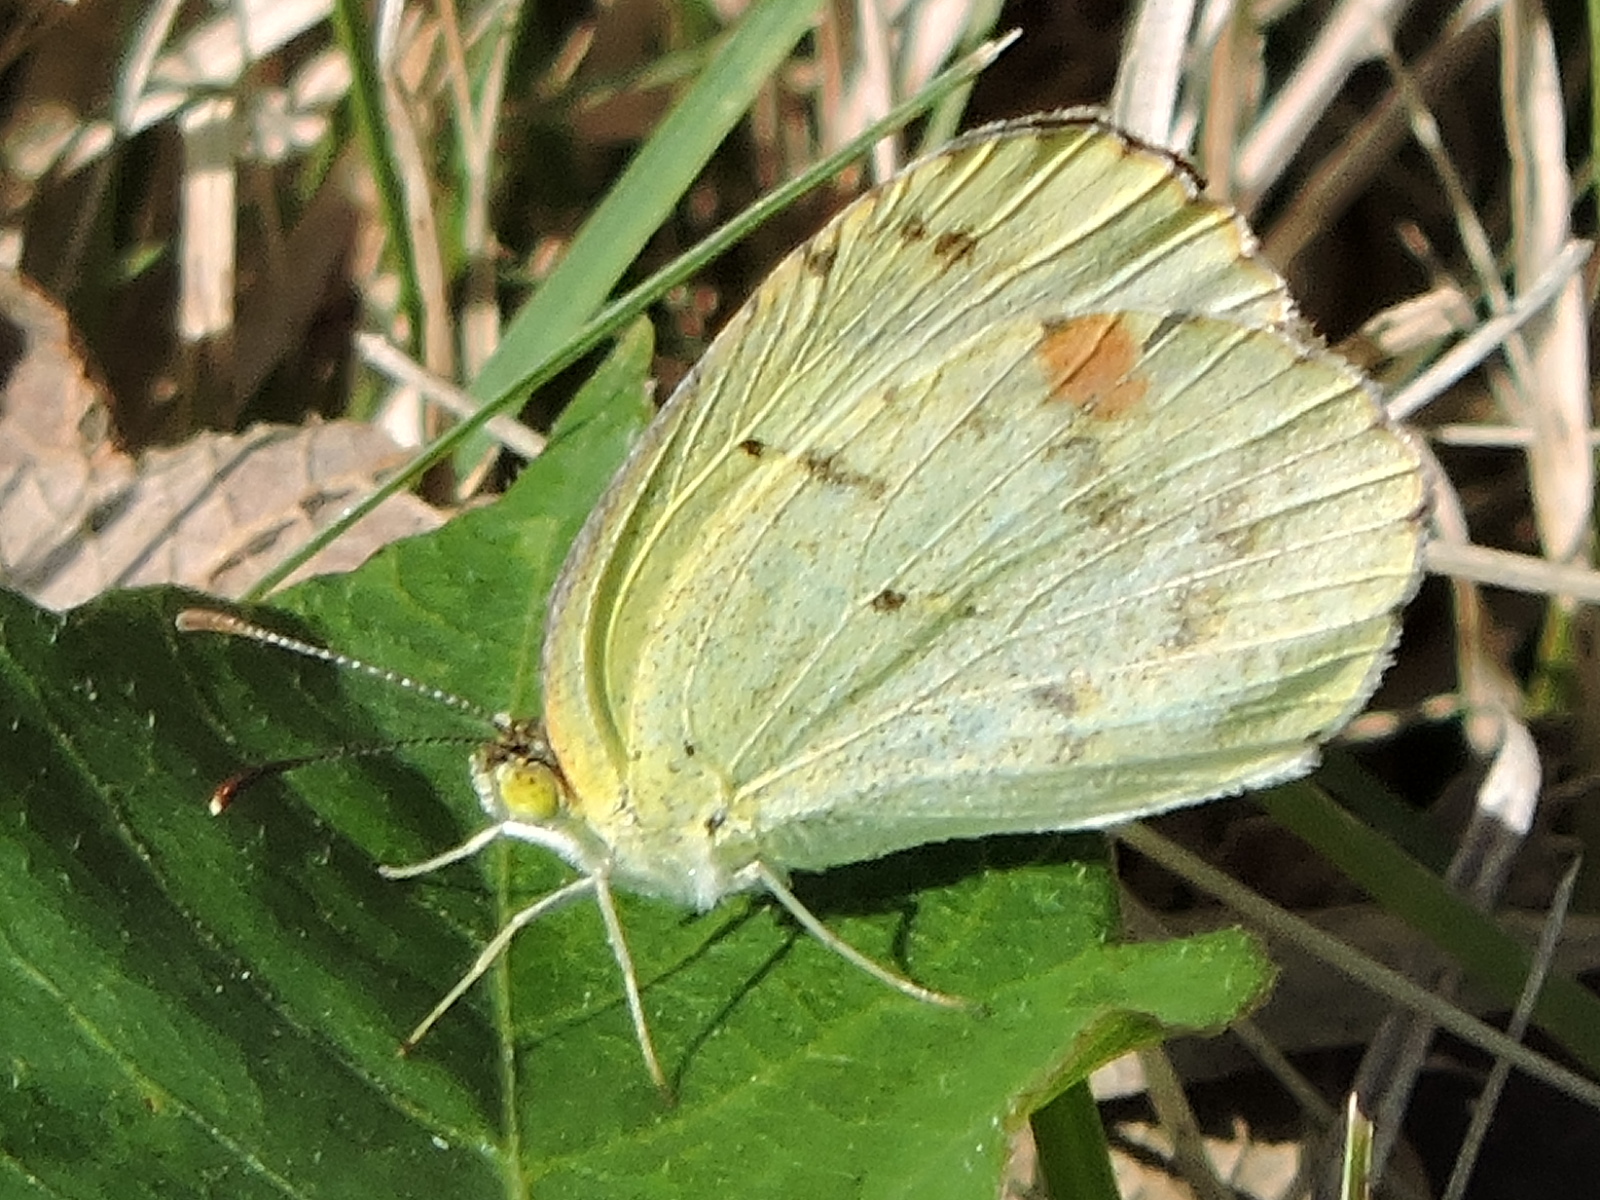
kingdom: Animalia
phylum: Arthropoda
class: Insecta
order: Lepidoptera
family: Pieridae
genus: Pyrisitia
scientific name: Pyrisitia lisa
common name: Little yellow
